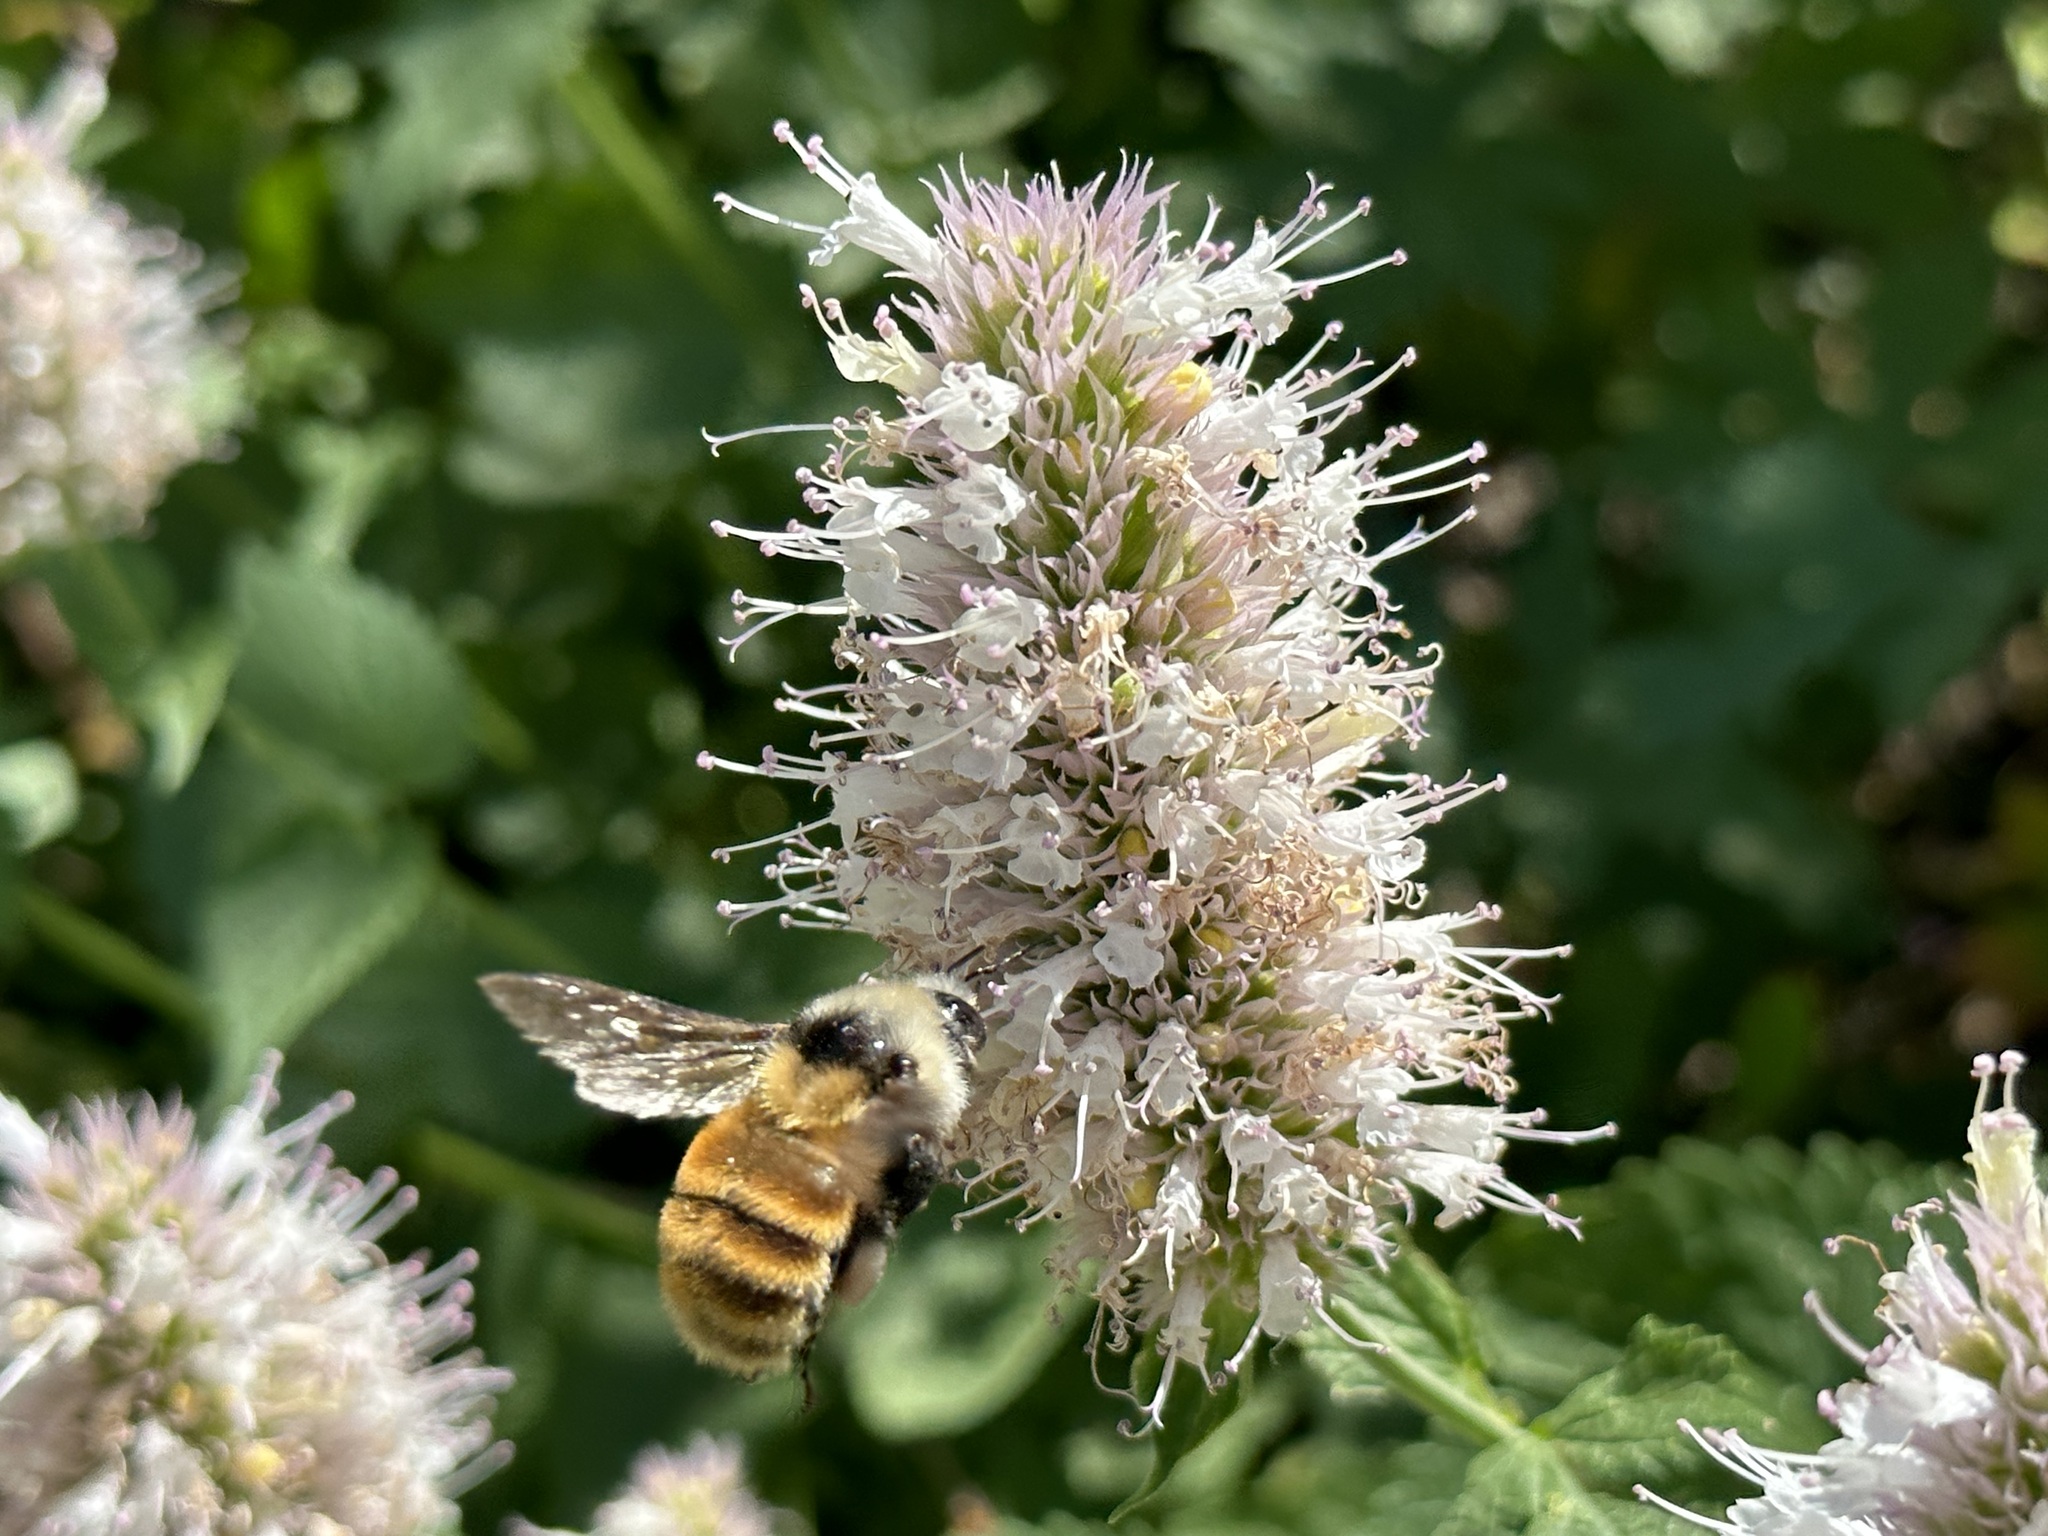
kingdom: Animalia
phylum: Arthropoda
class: Insecta
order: Hymenoptera
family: Apidae
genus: Bombus
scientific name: Bombus appositus
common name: White-shouldered bumble bee
